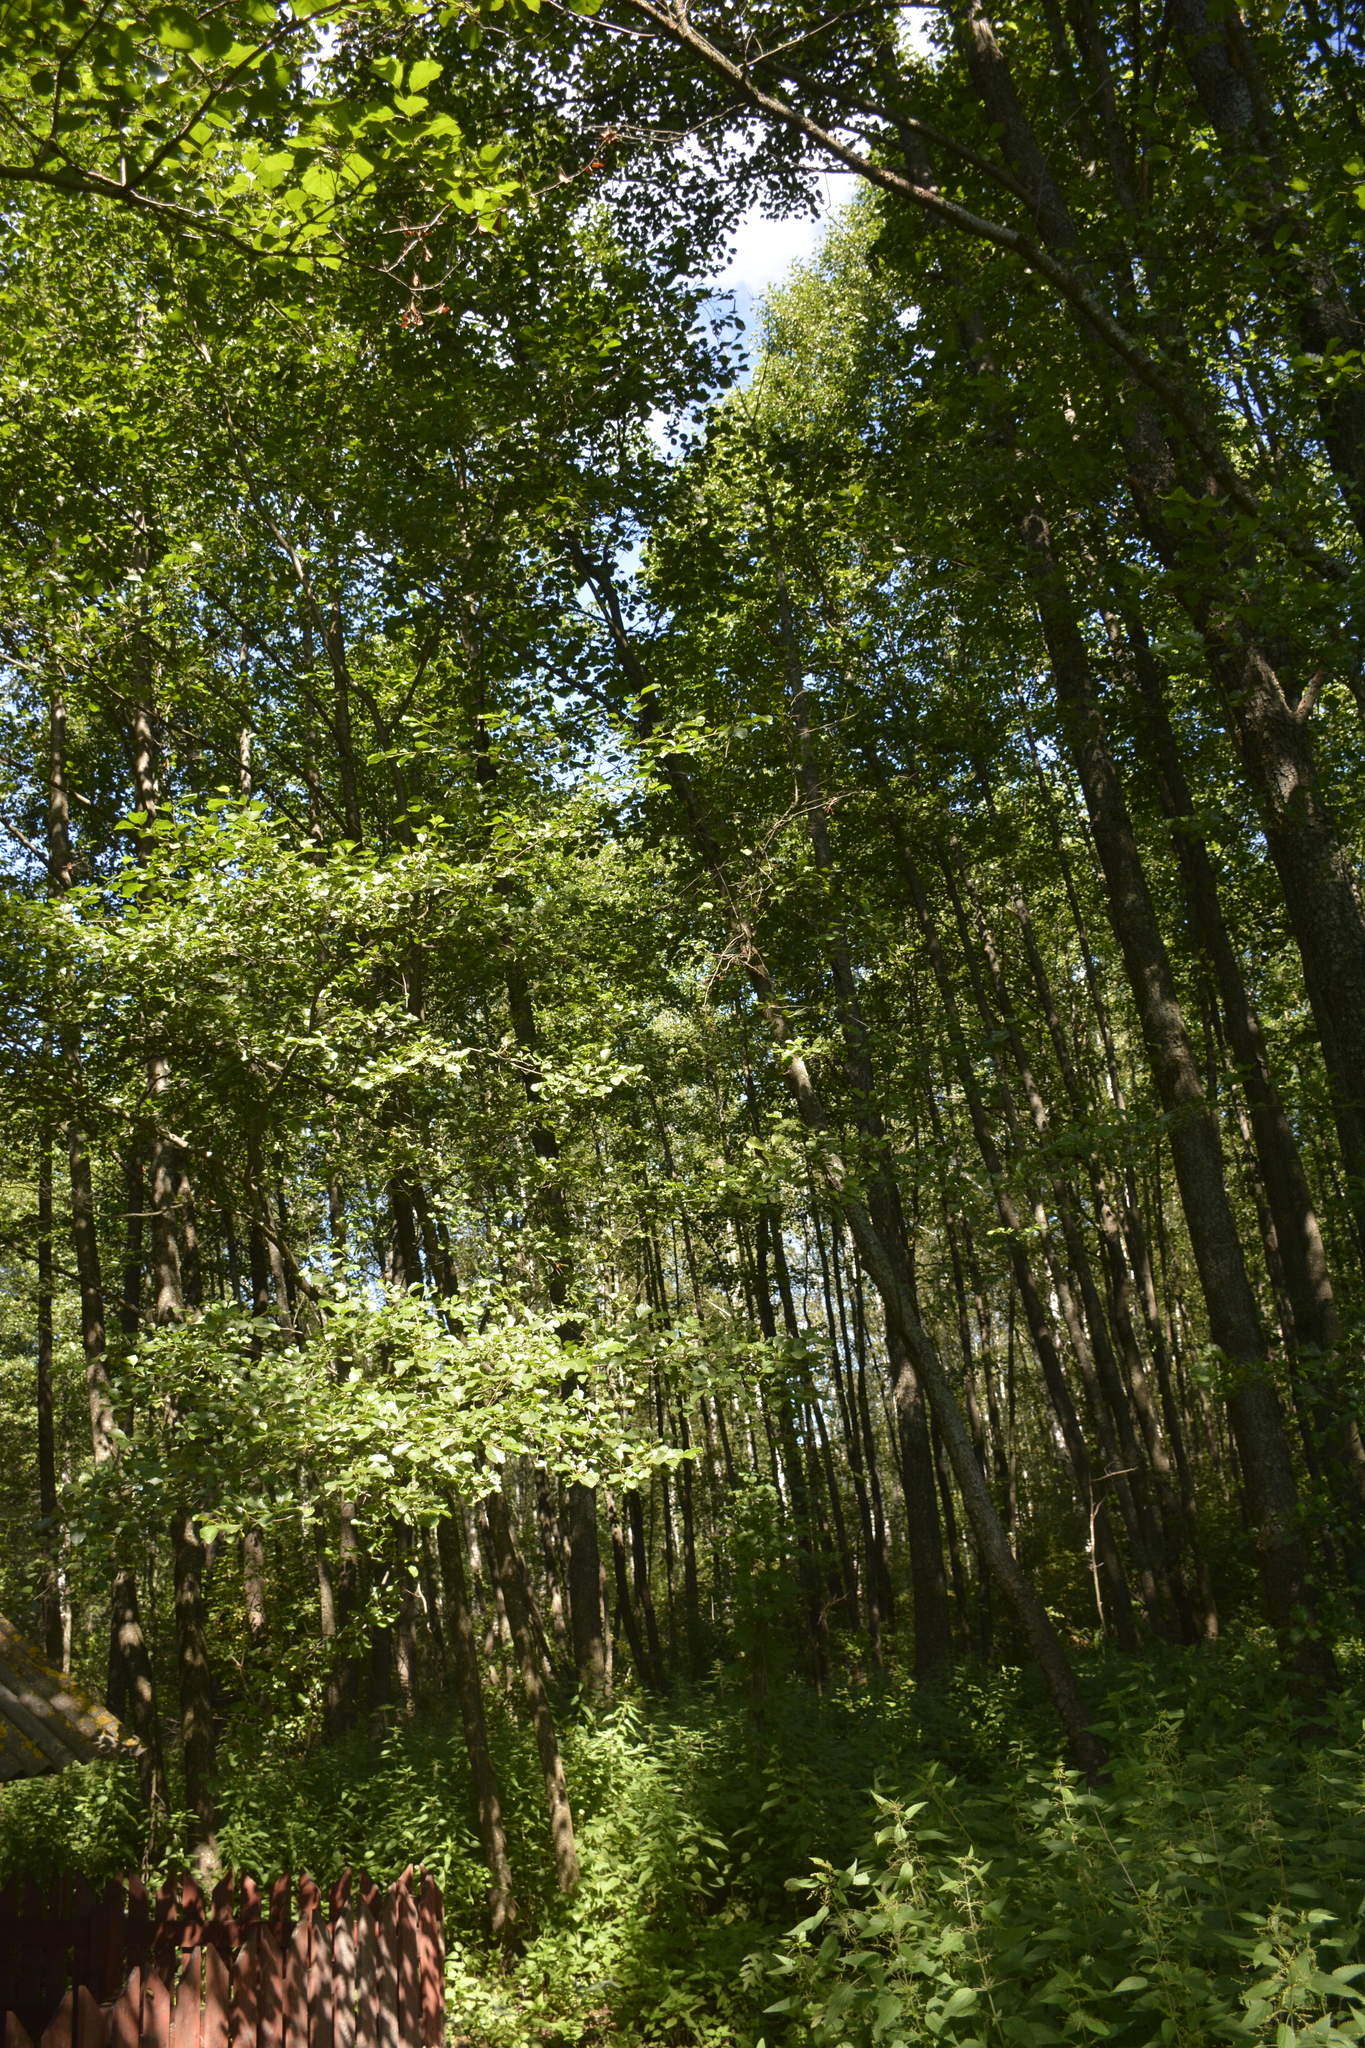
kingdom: Plantae
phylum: Tracheophyta
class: Magnoliopsida
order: Fagales
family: Betulaceae
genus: Alnus
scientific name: Alnus glutinosa
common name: Black alder
